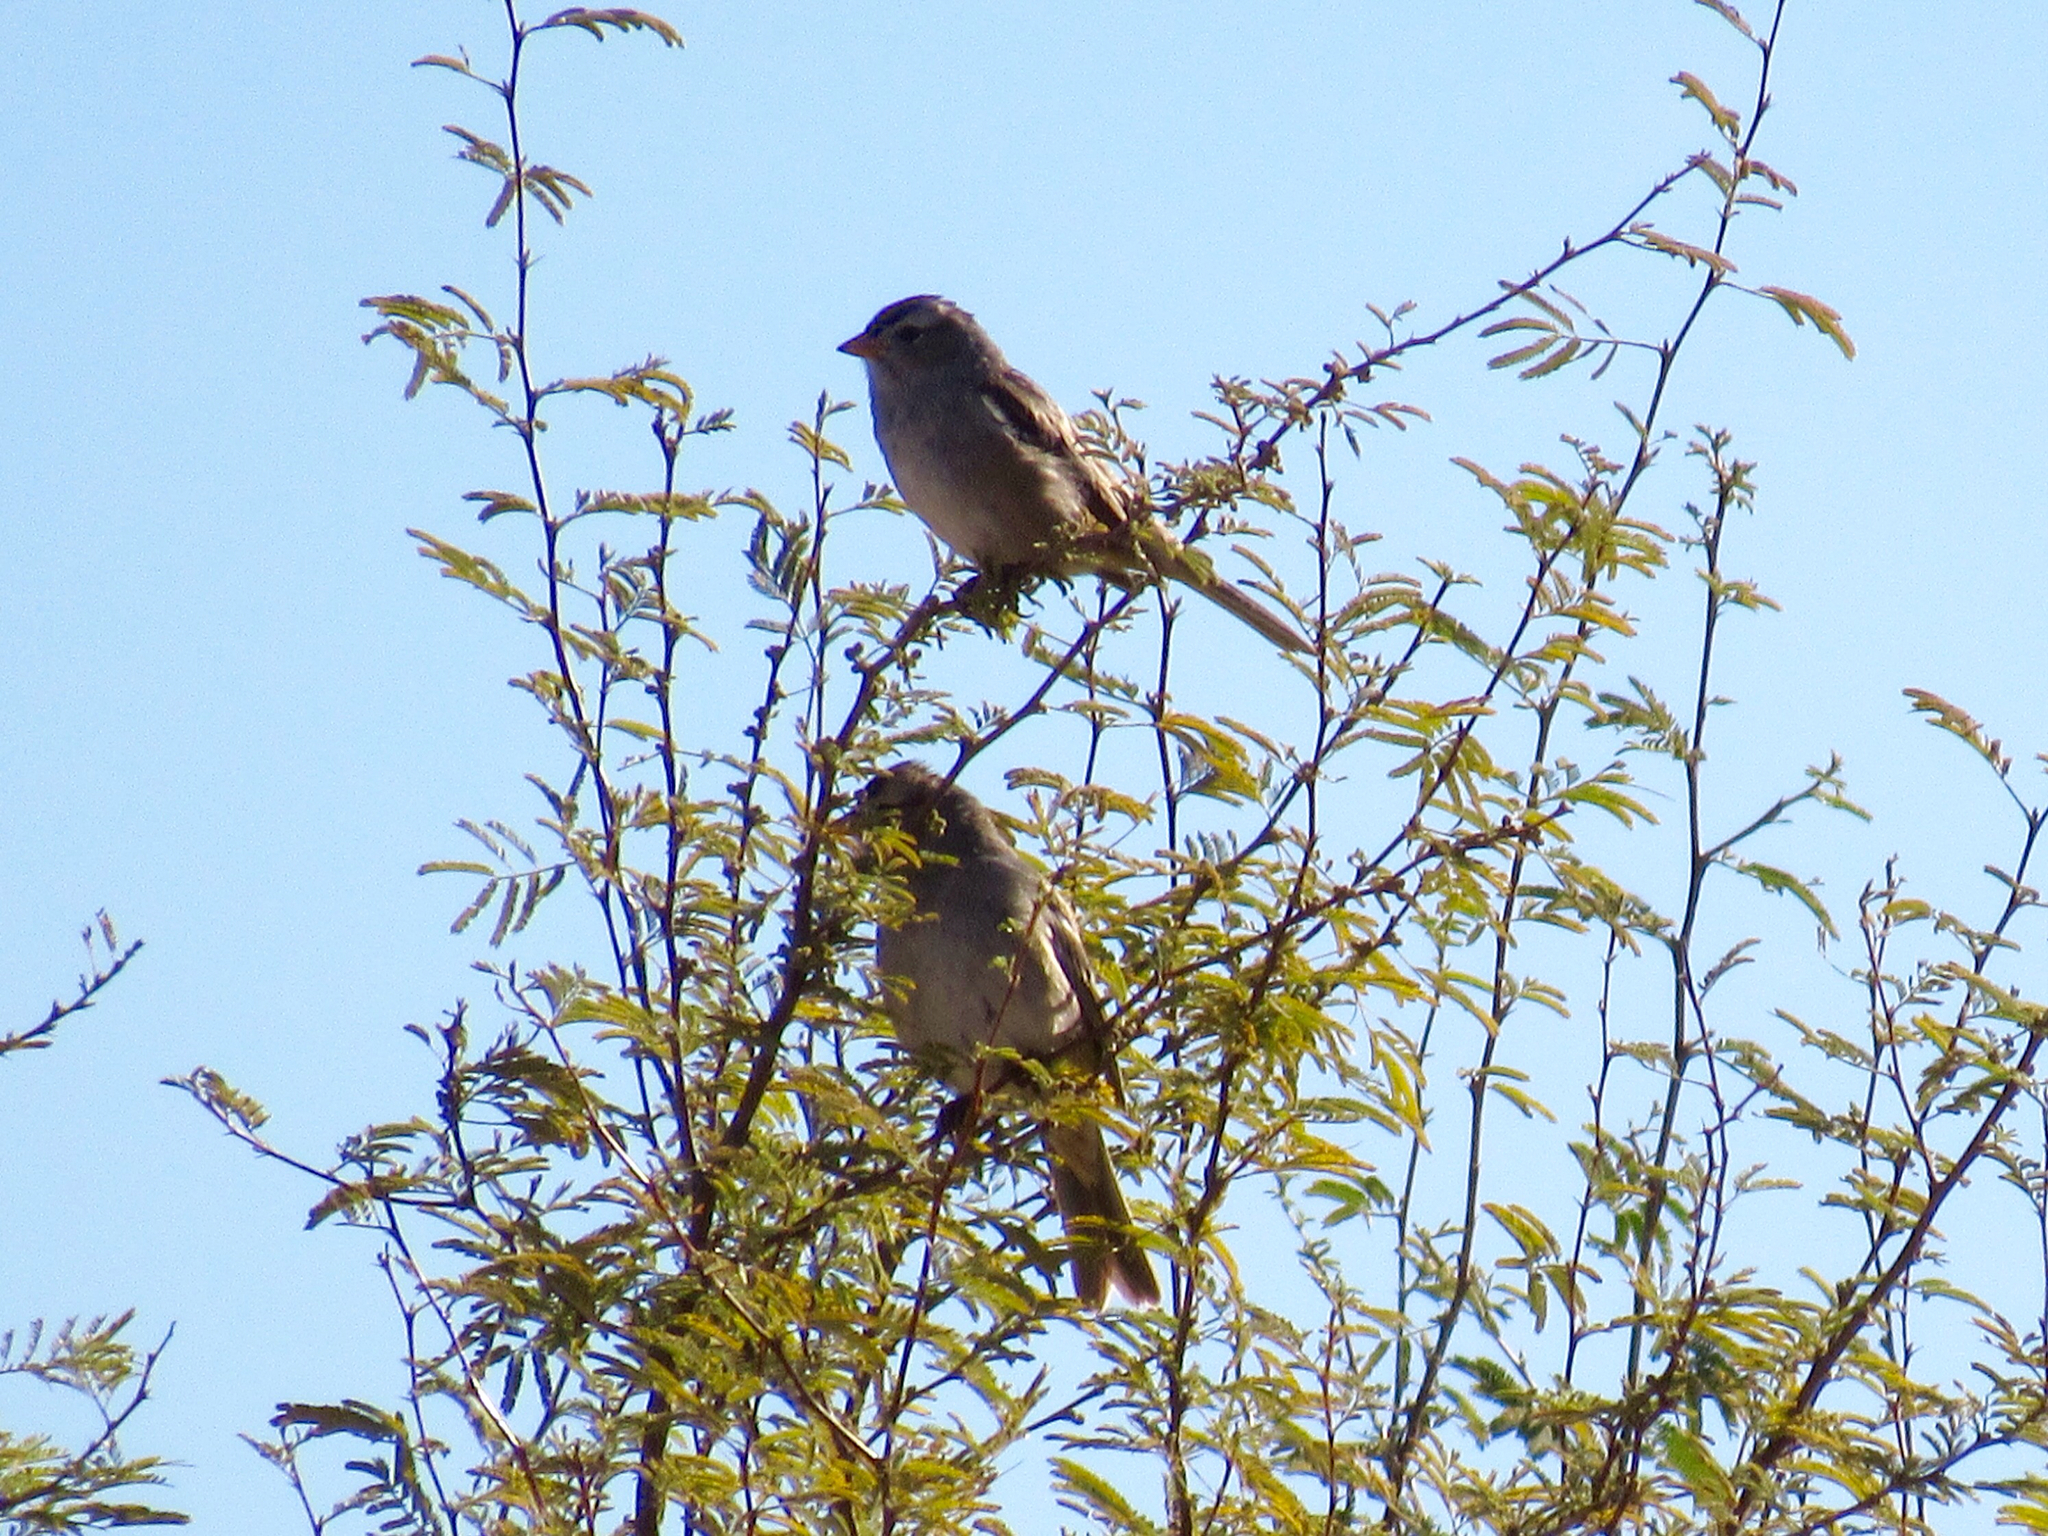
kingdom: Animalia
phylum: Chordata
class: Aves
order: Passeriformes
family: Passerellidae
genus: Zonotrichia
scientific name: Zonotrichia leucophrys
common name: White-crowned sparrow
